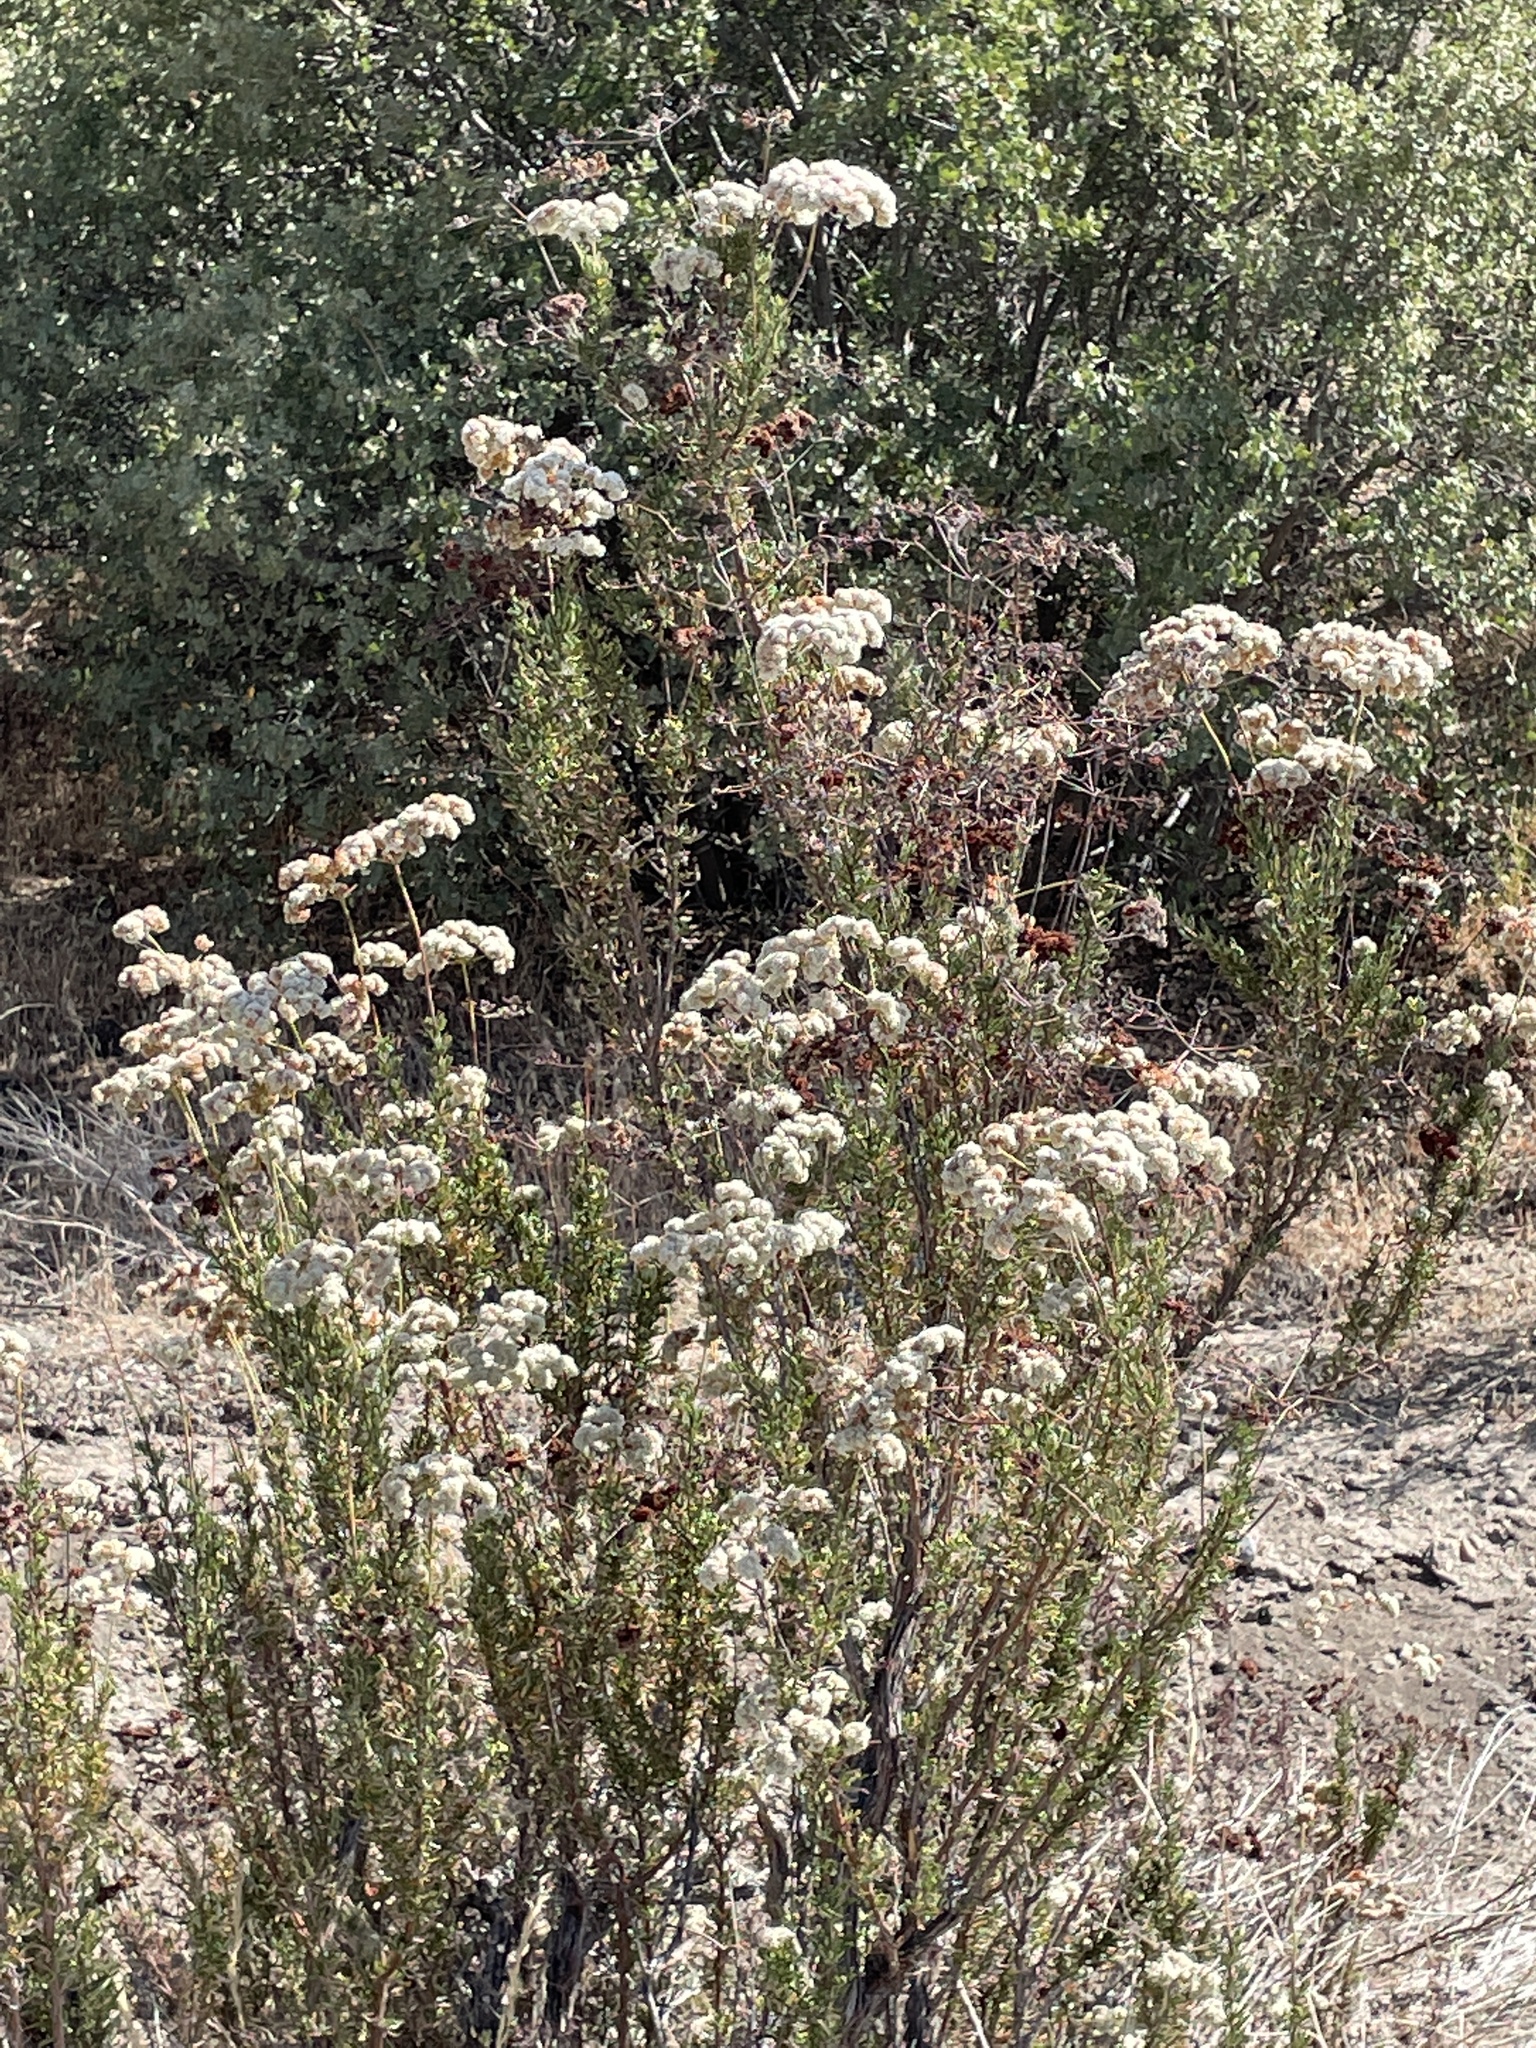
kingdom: Plantae
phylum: Tracheophyta
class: Magnoliopsida
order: Caryophyllales
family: Polygonaceae
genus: Eriogonum
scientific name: Eriogonum fasciculatum
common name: California wild buckwheat
